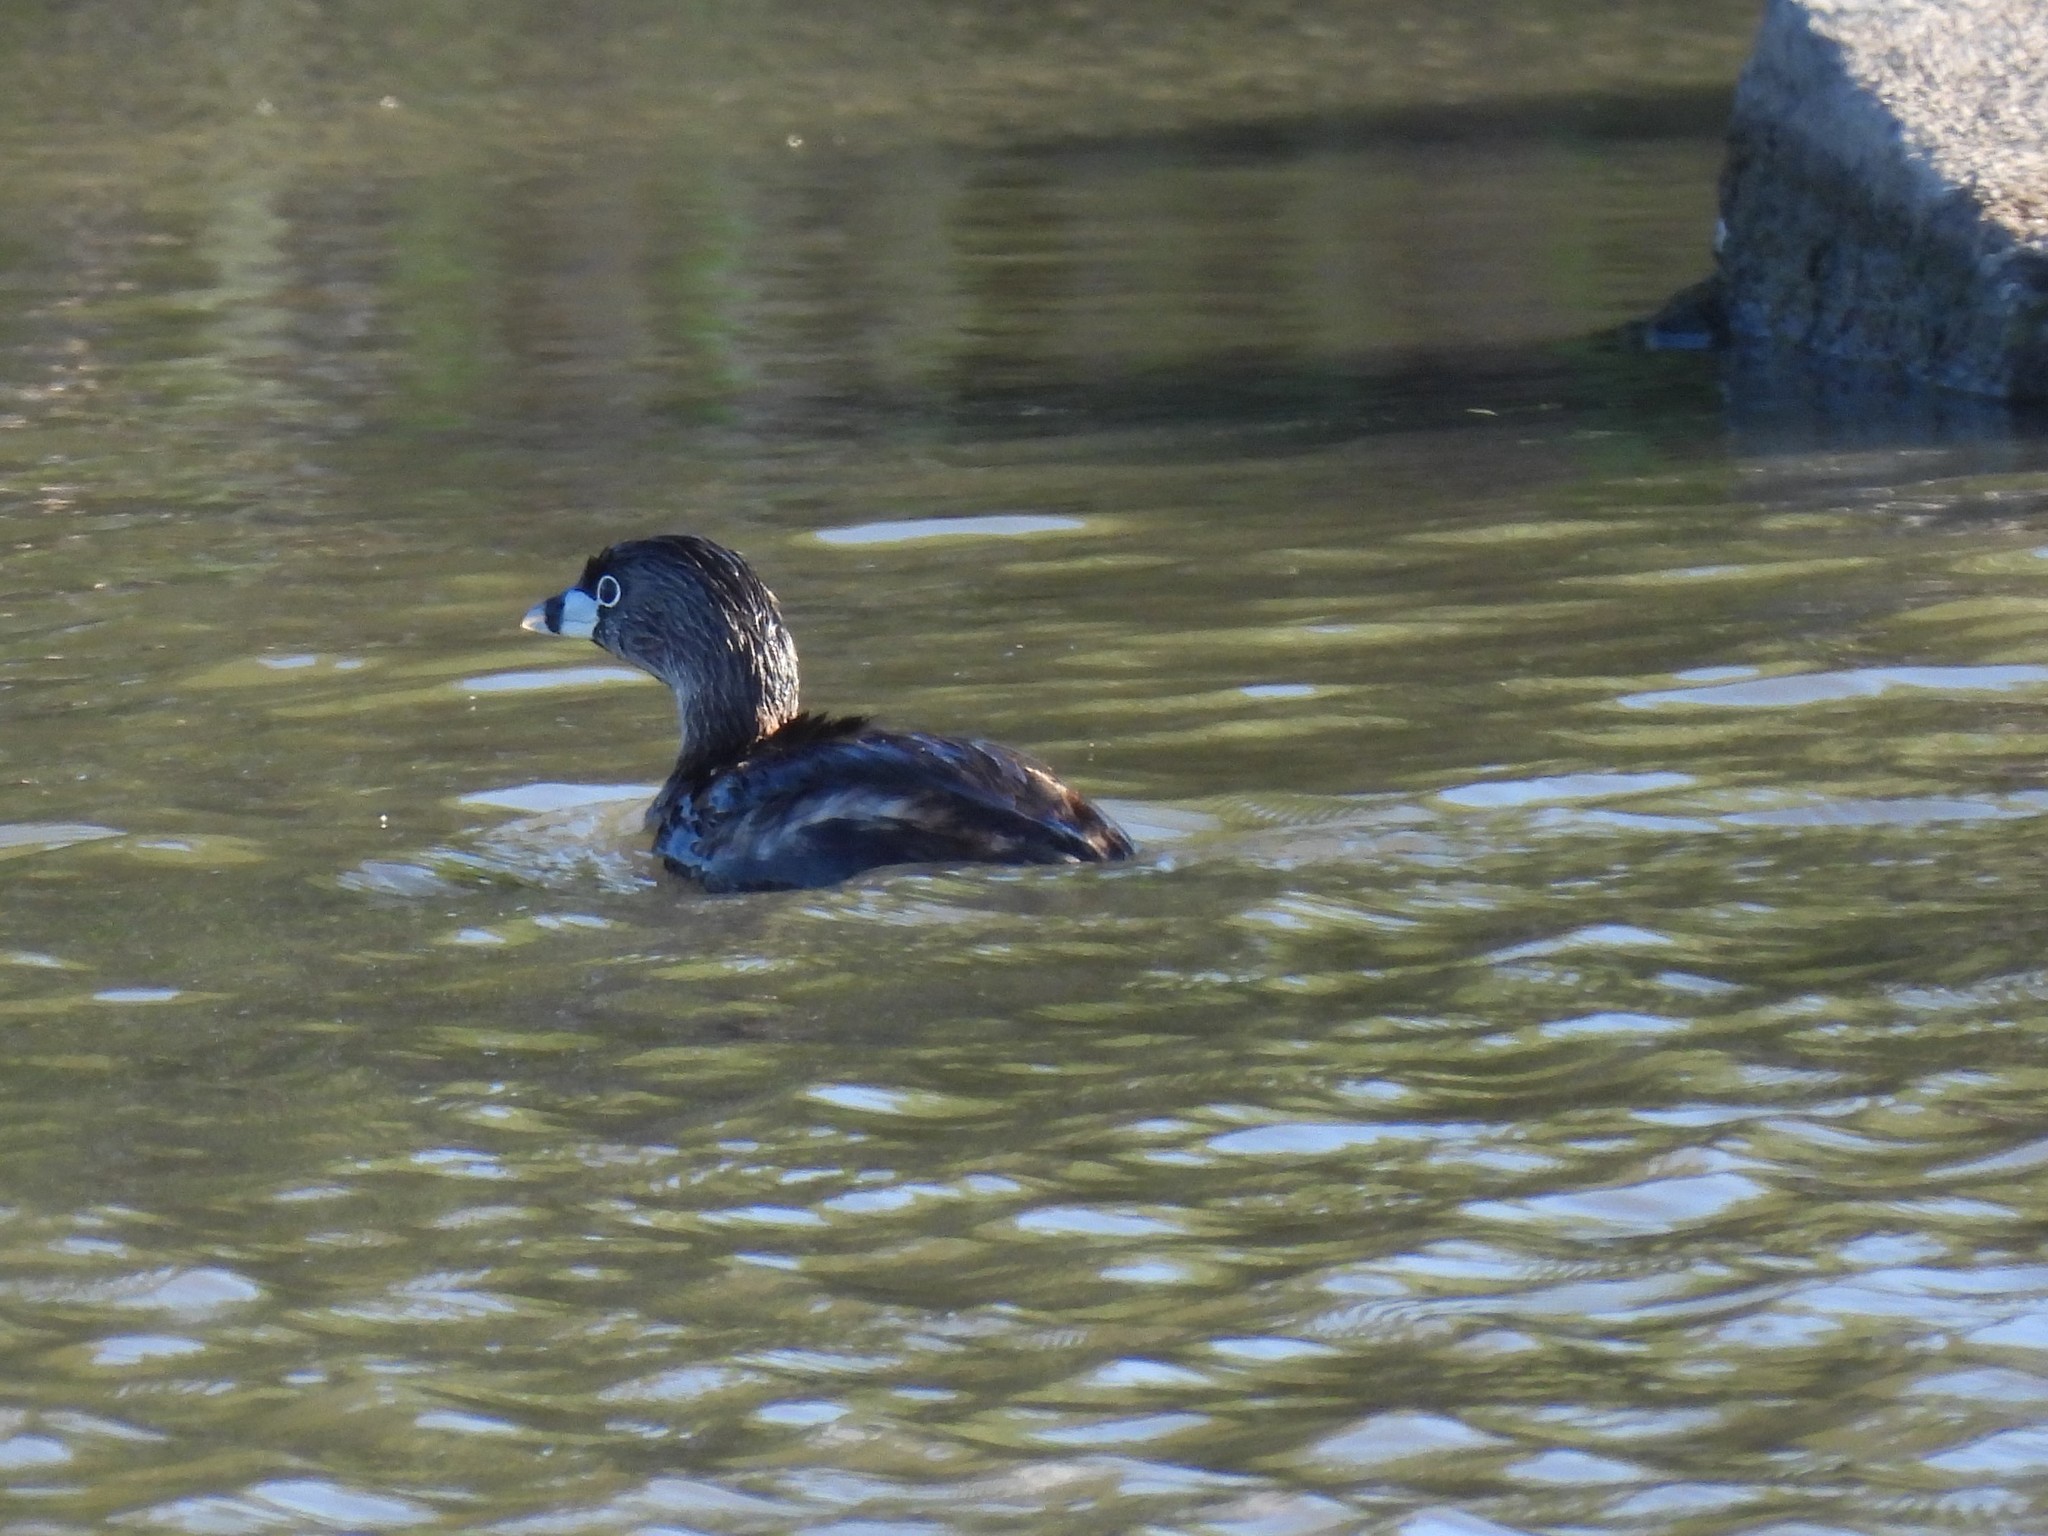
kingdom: Animalia
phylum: Chordata
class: Aves
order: Podicipediformes
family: Podicipedidae
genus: Podilymbus
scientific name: Podilymbus podiceps
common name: Pied-billed grebe
